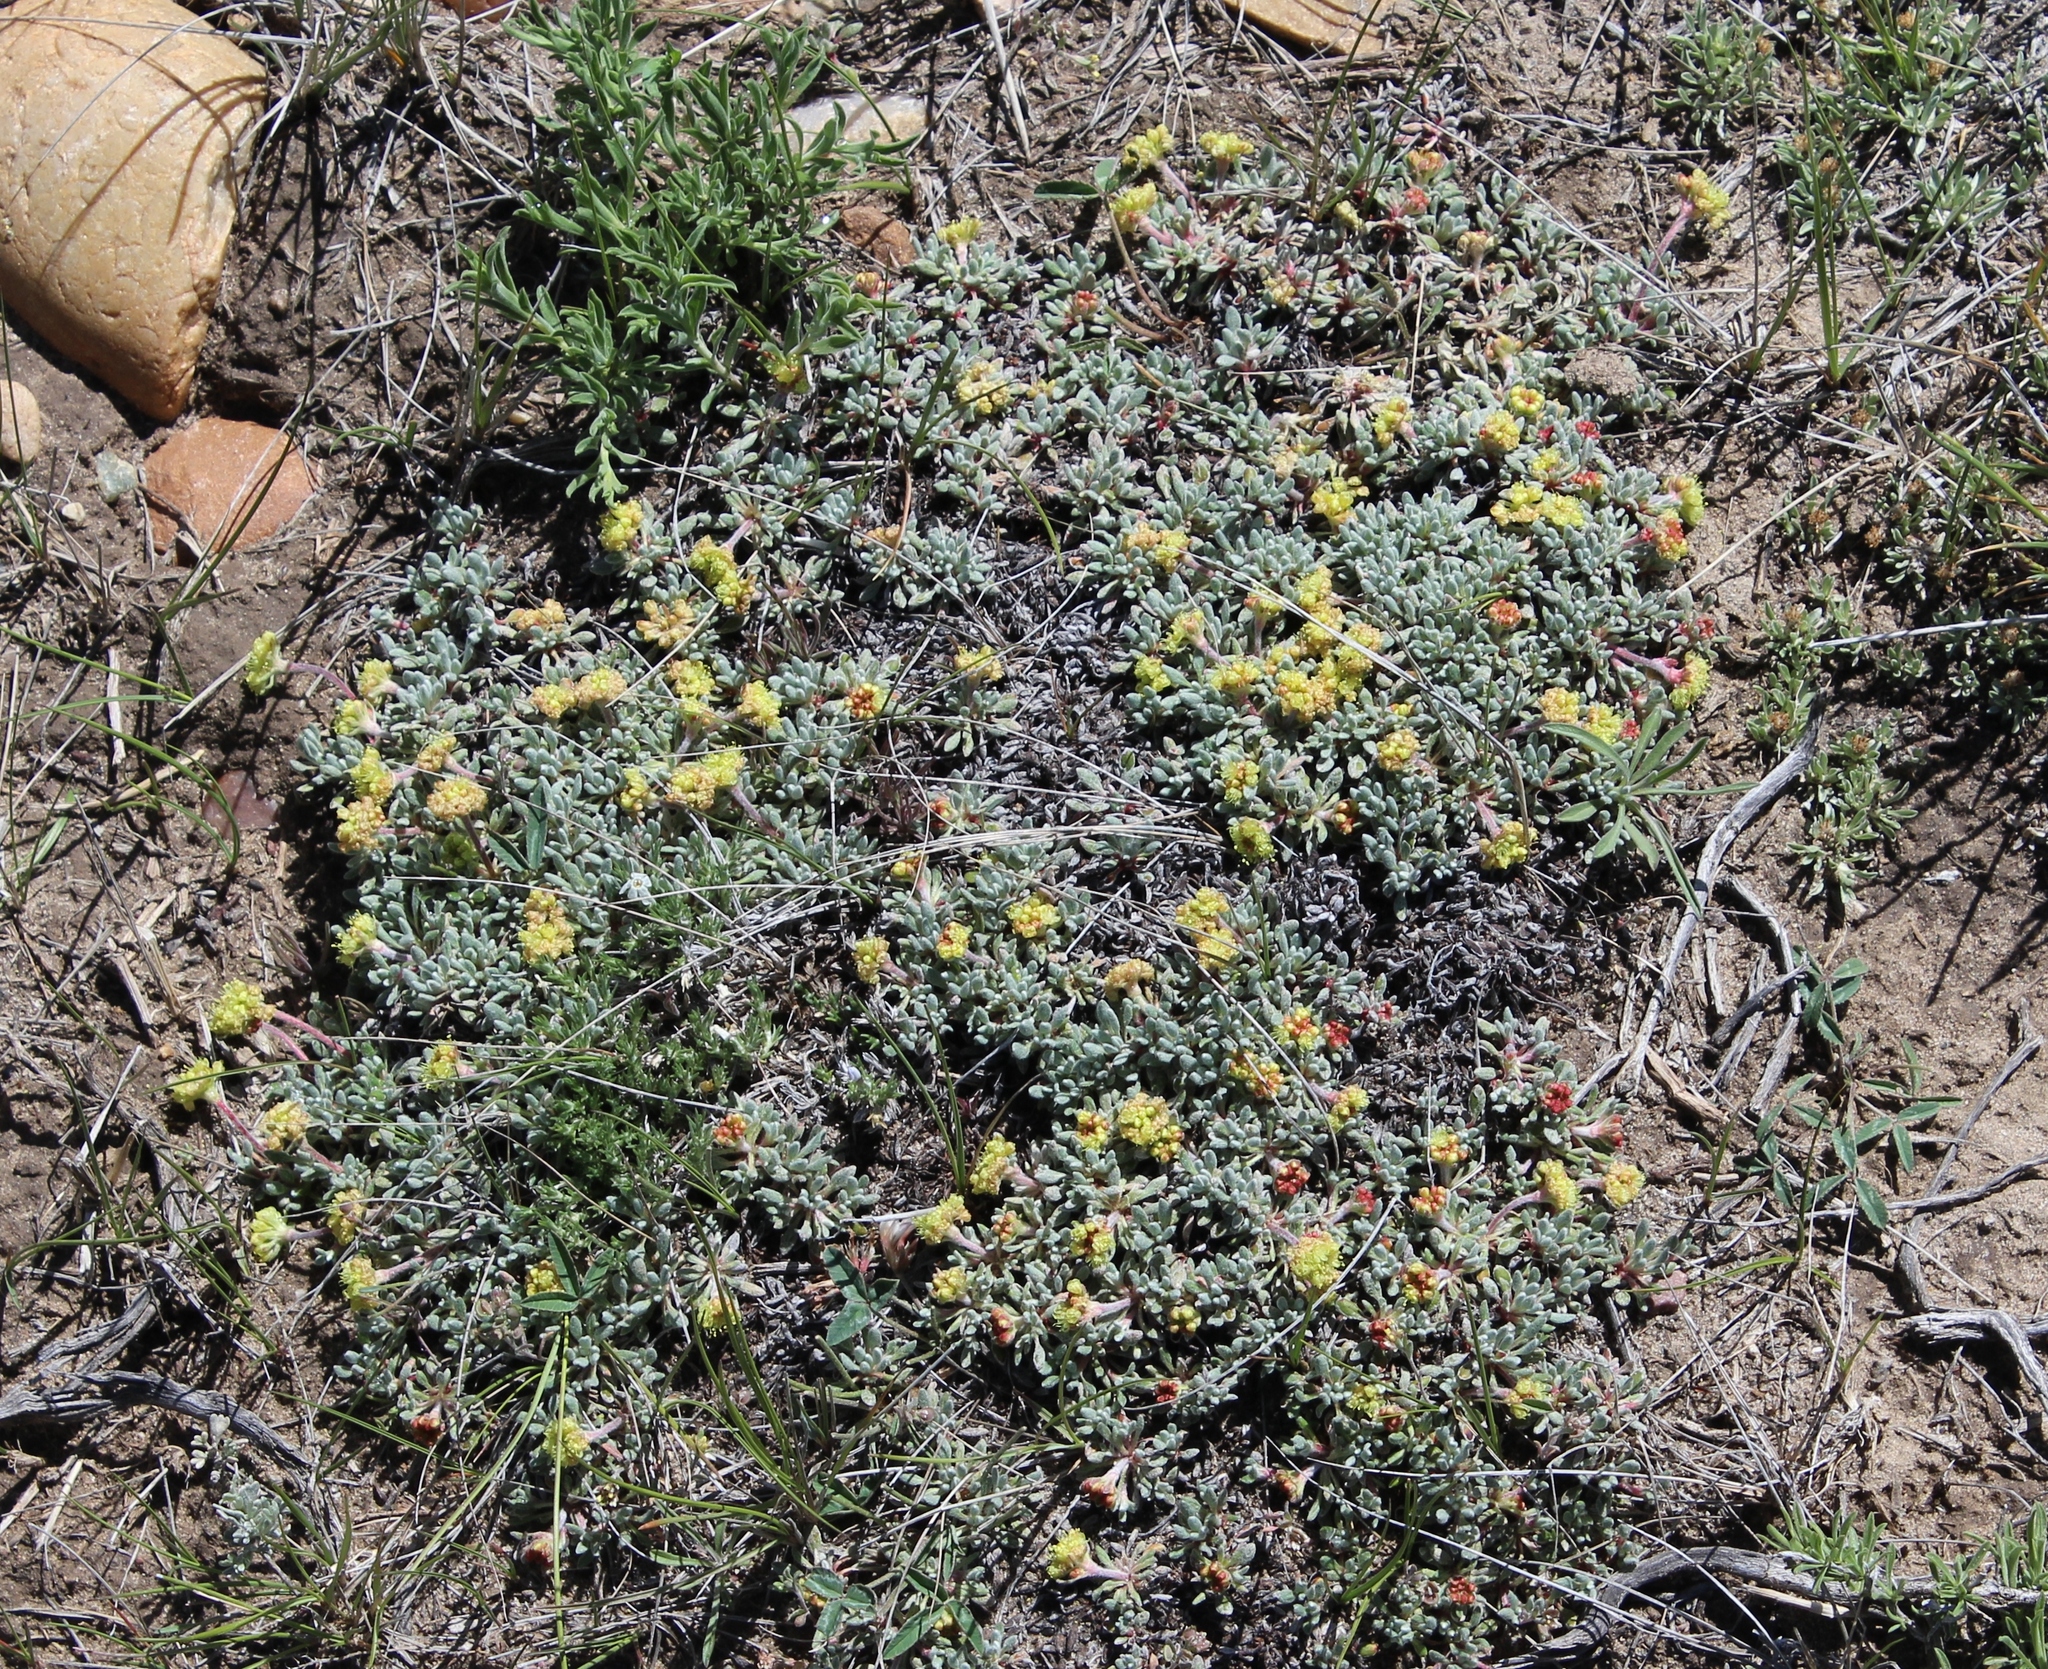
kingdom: Plantae
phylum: Tracheophyta
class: Magnoliopsida
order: Caryophyllales
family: Polygonaceae
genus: Eriogonum
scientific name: Eriogonum caespitosum
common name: Matted wild buckwheat
